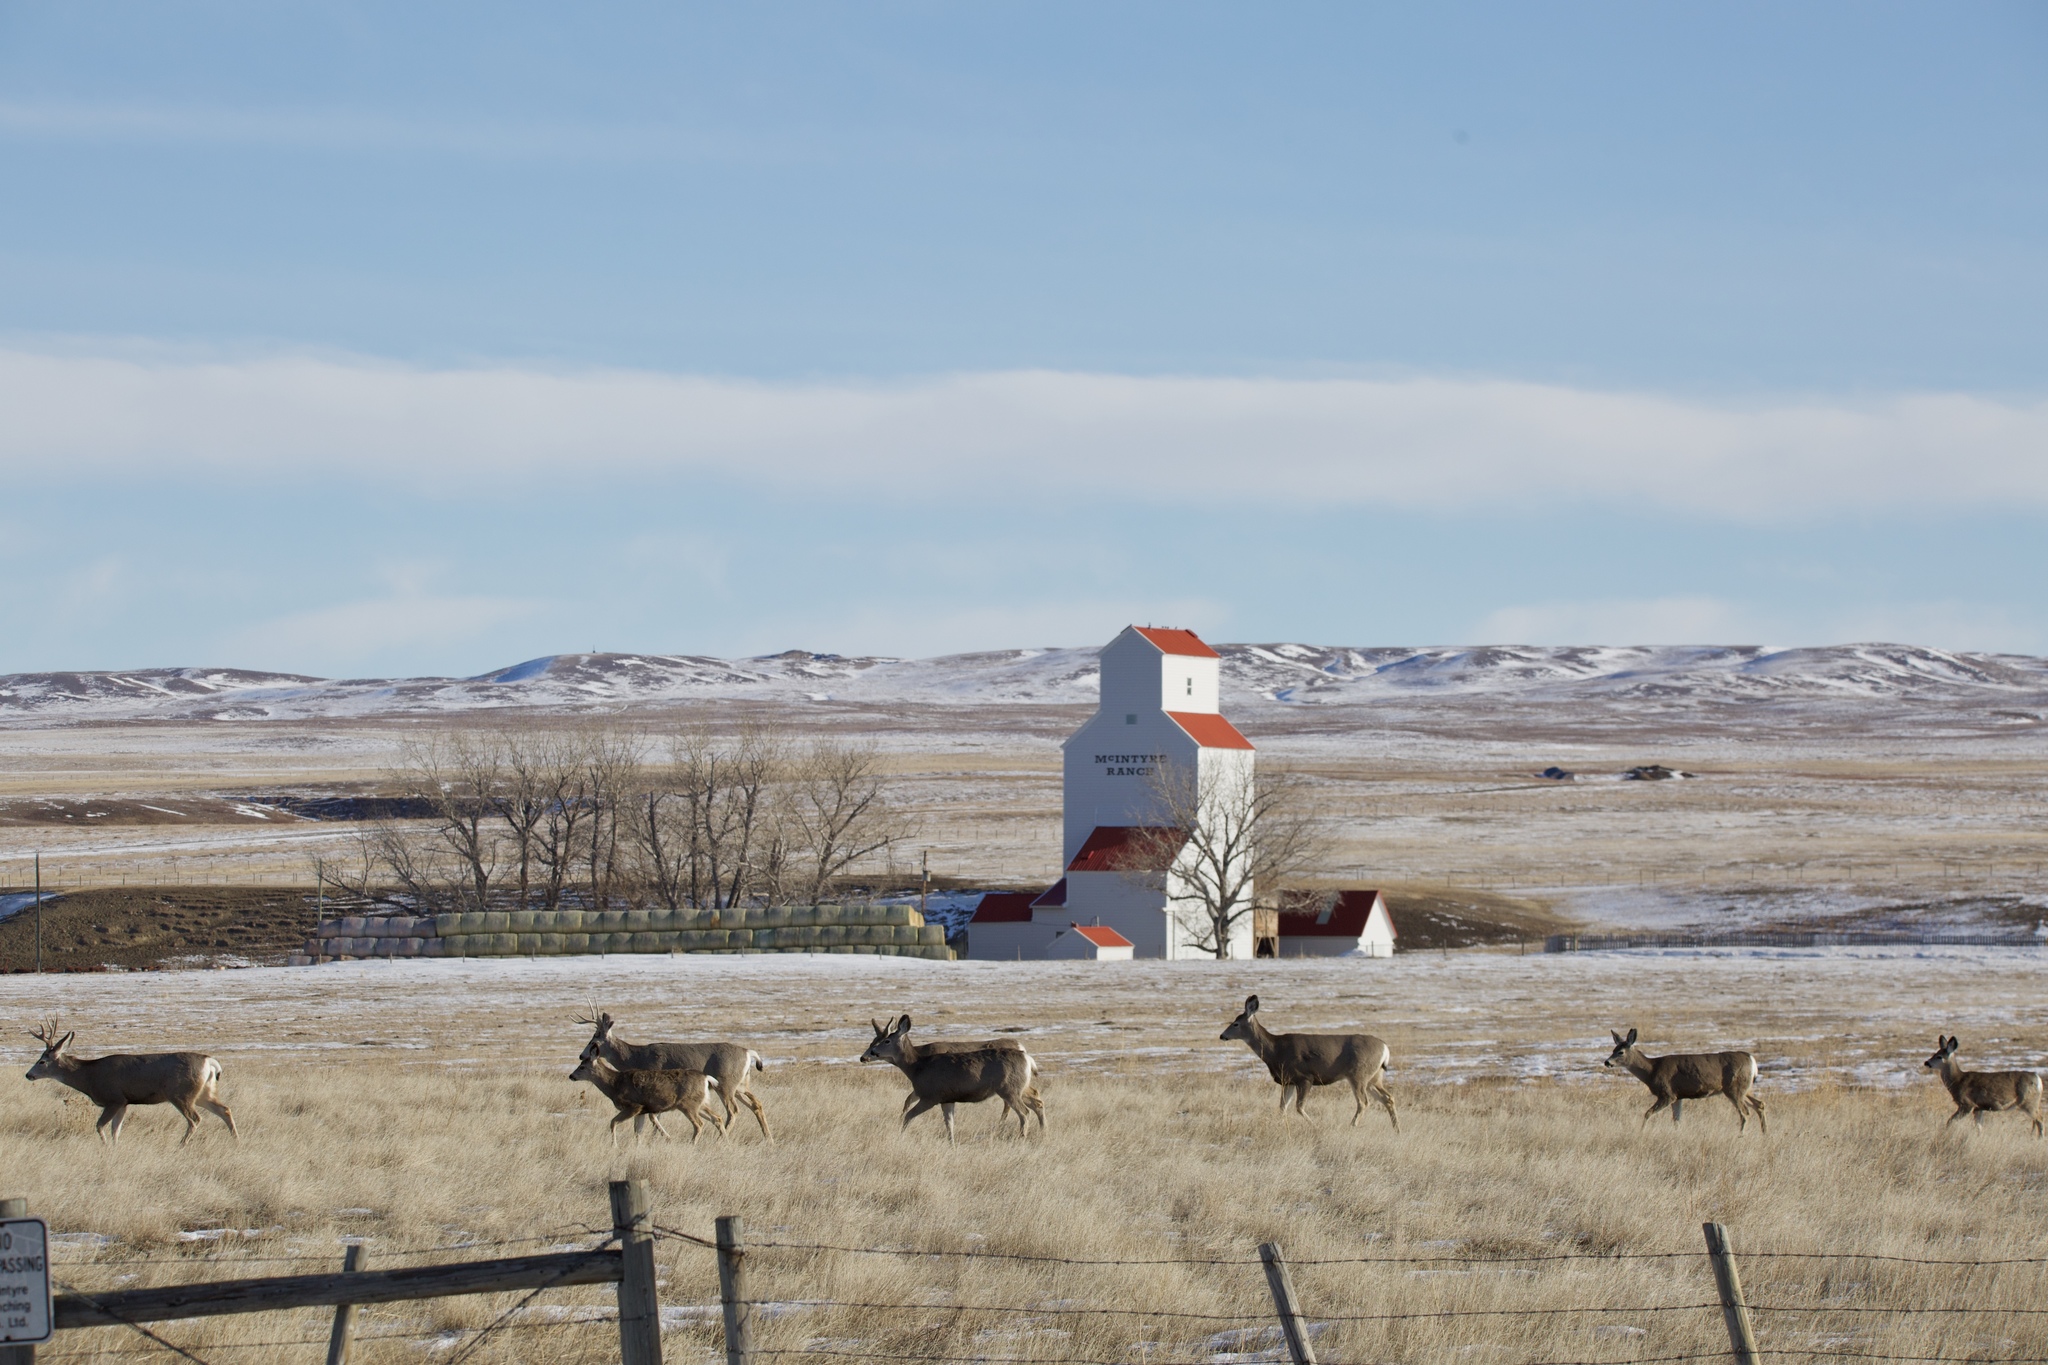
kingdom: Animalia
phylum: Chordata
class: Mammalia
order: Artiodactyla
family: Cervidae
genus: Odocoileus
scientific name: Odocoileus hemionus
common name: Mule deer
